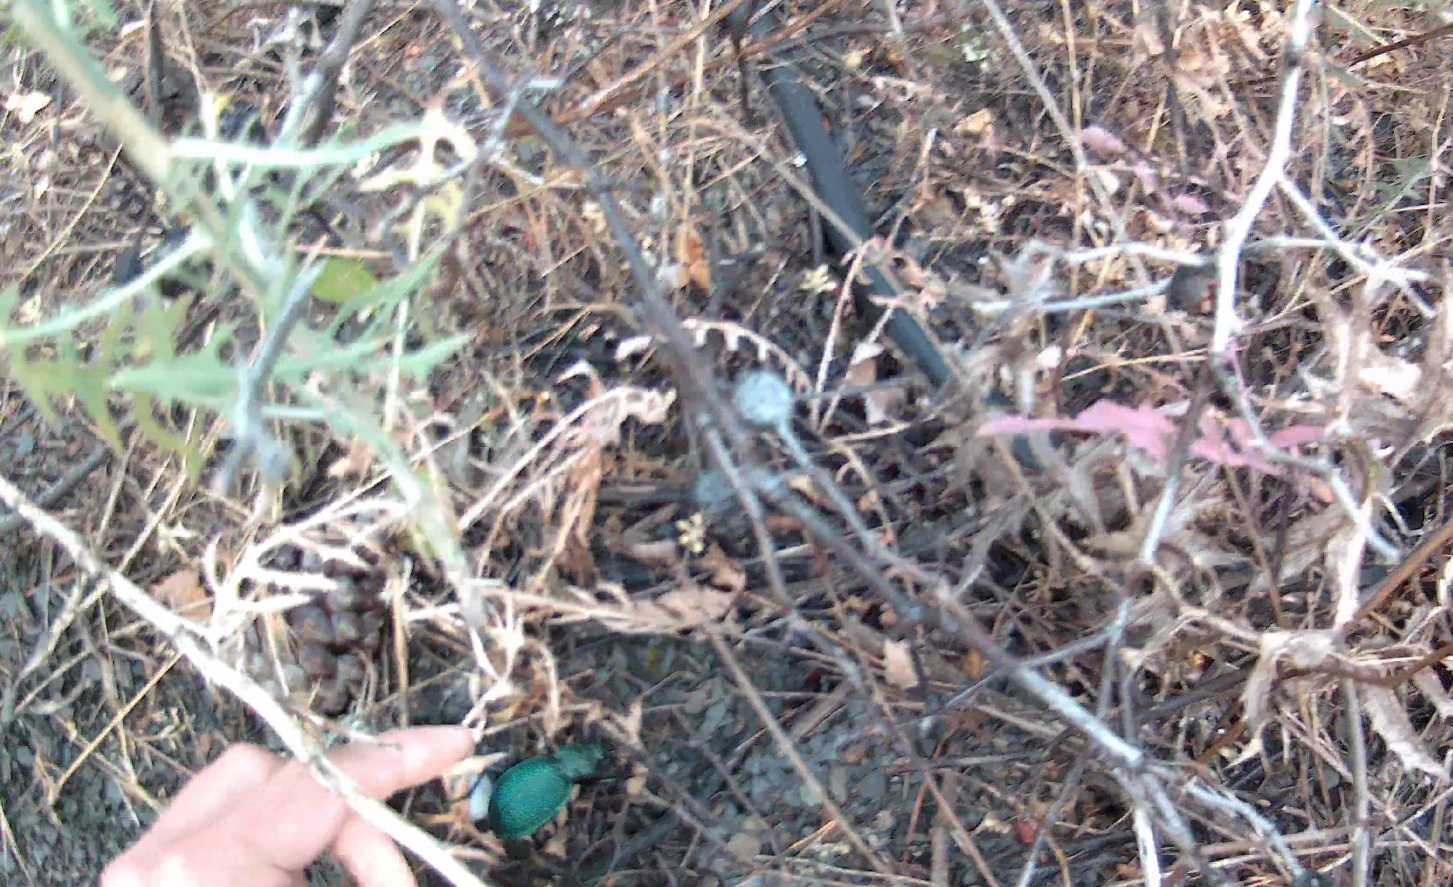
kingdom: Animalia
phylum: Arthropoda
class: Insecta
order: Coleoptera
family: Carabidae
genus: Carabus
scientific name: Carabus scabrosus
